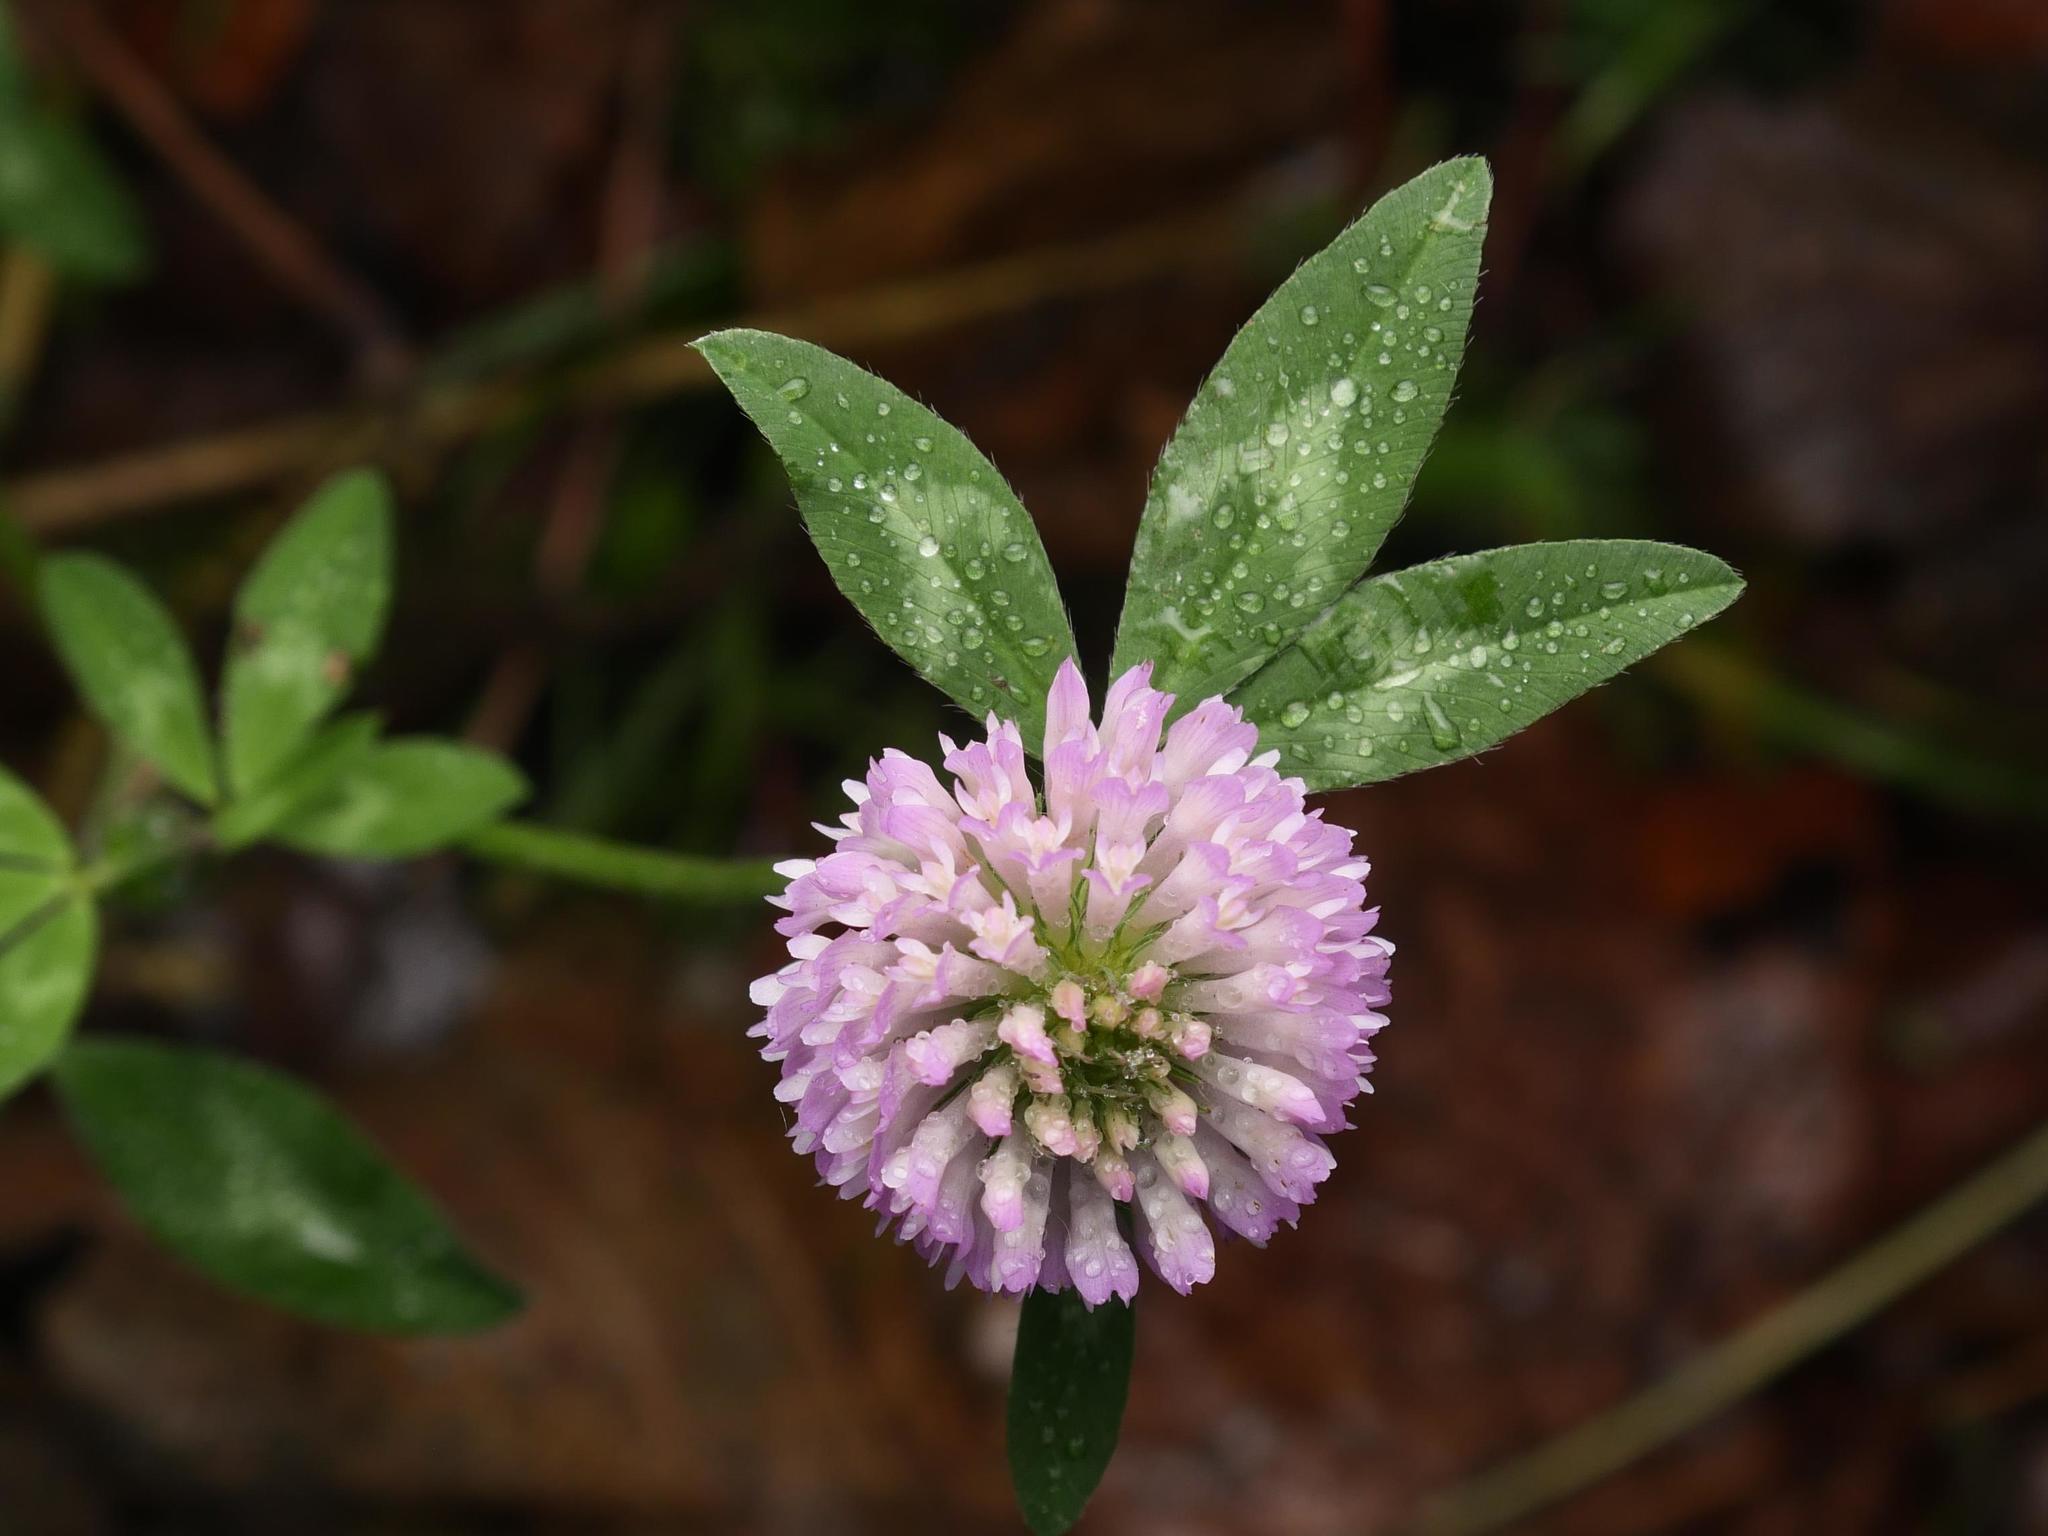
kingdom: Plantae
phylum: Tracheophyta
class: Magnoliopsida
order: Fabales
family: Fabaceae
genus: Trifolium
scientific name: Trifolium pratense
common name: Red clover
